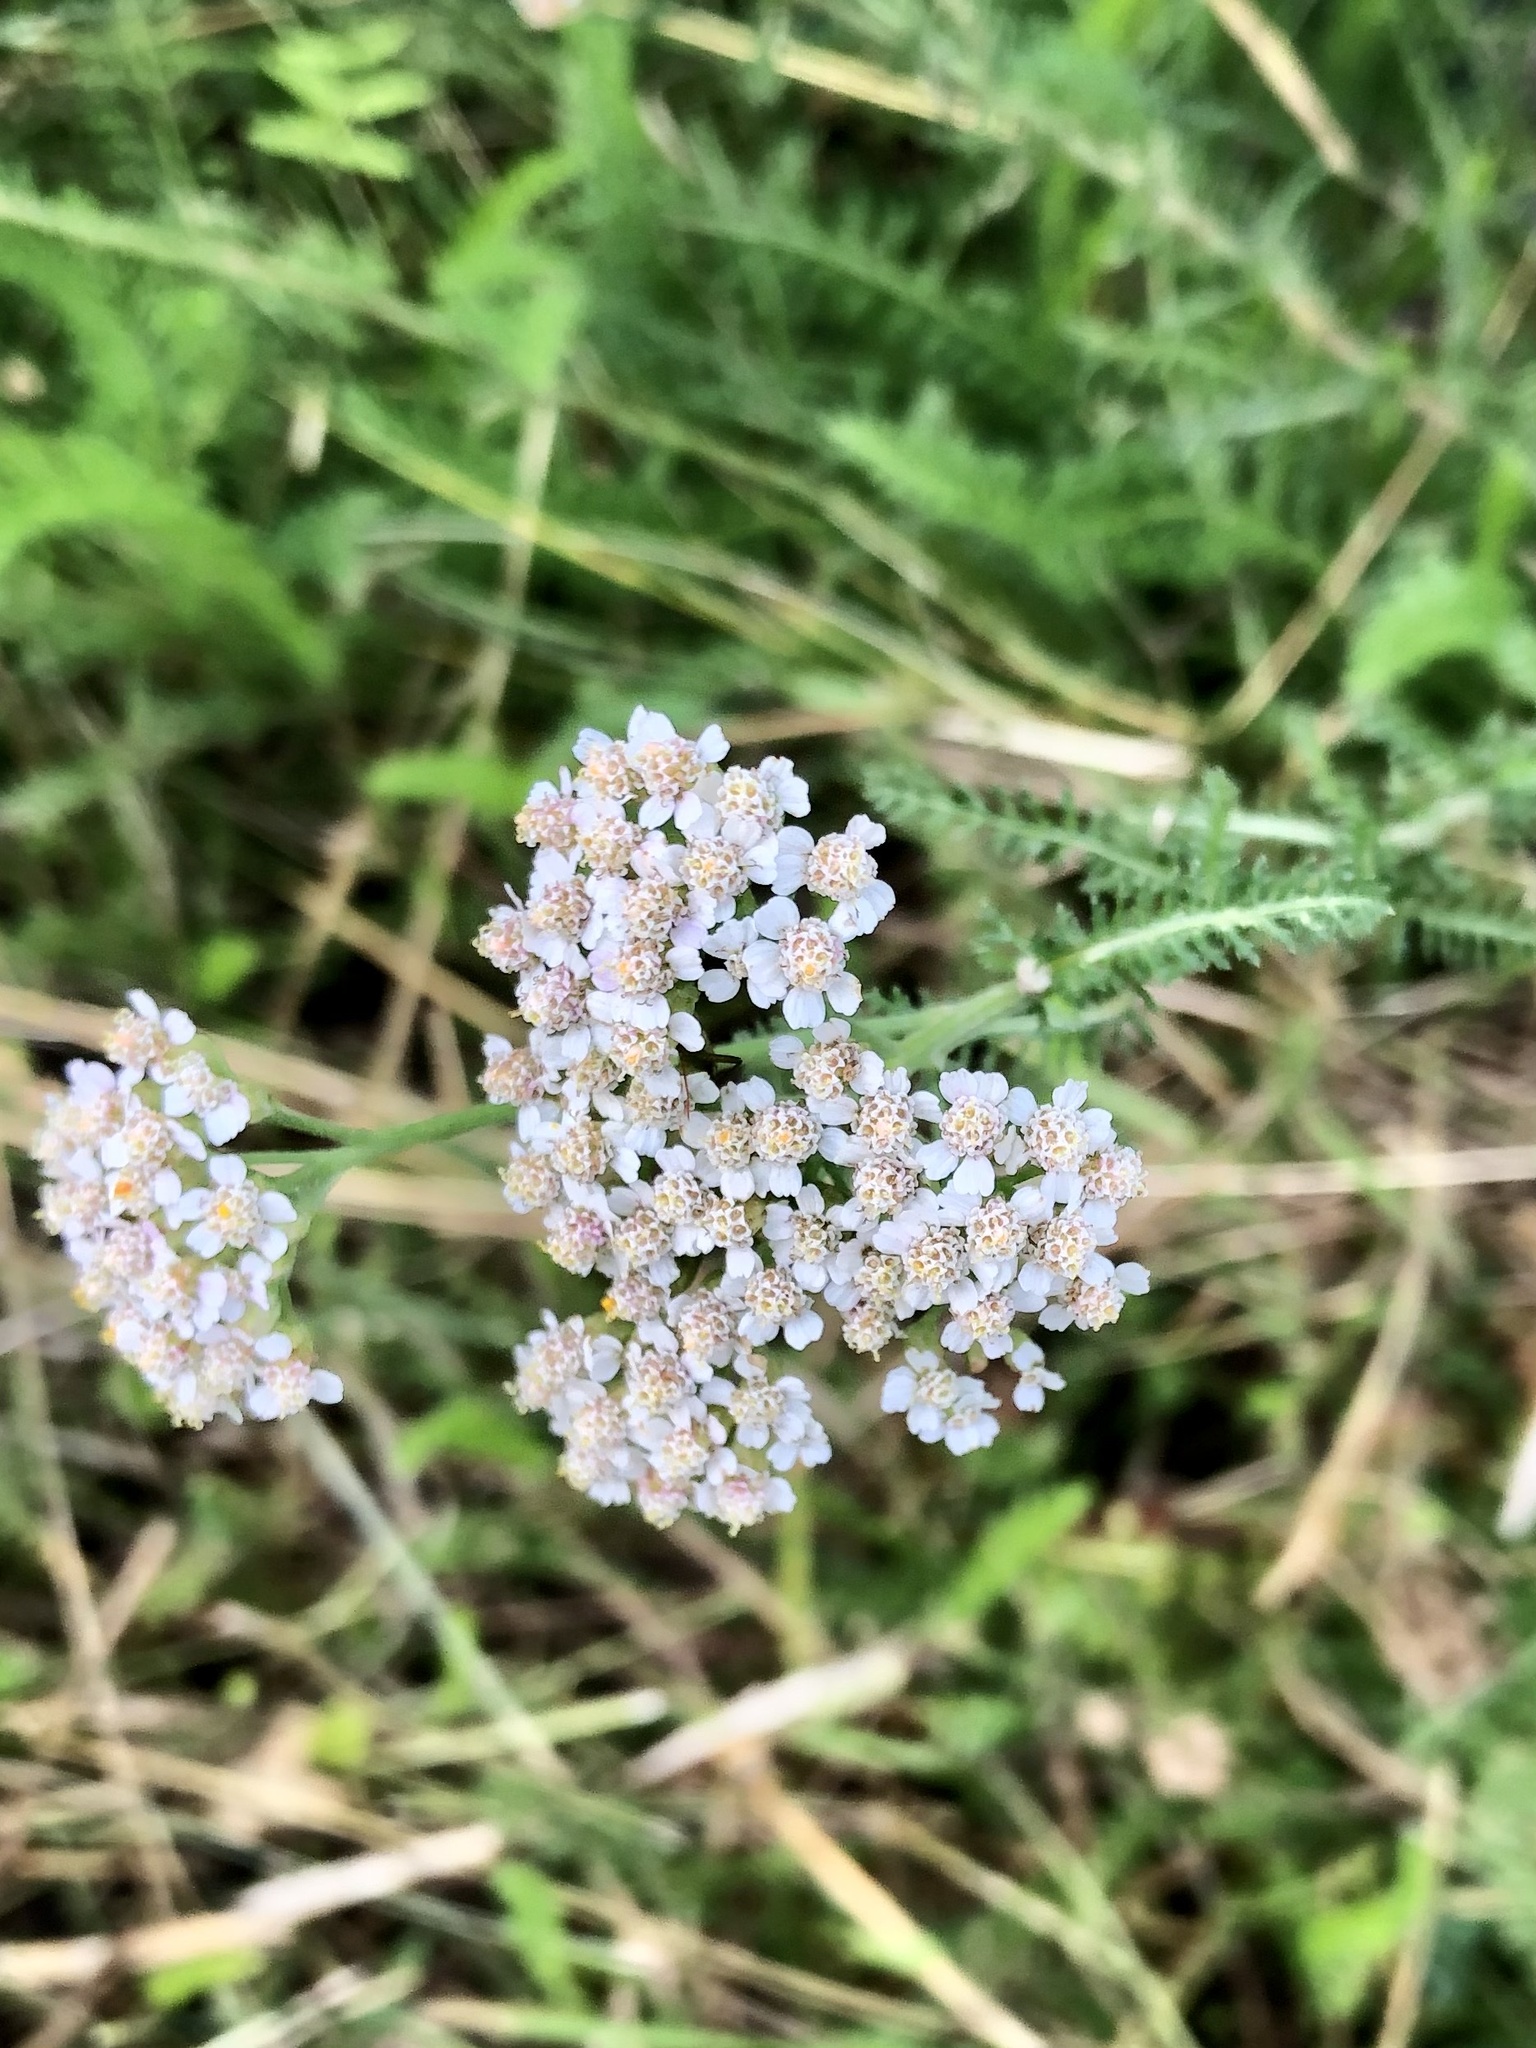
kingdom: Plantae
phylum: Tracheophyta
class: Magnoliopsida
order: Asterales
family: Asteraceae
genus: Achillea
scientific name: Achillea millefolium
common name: Yarrow
